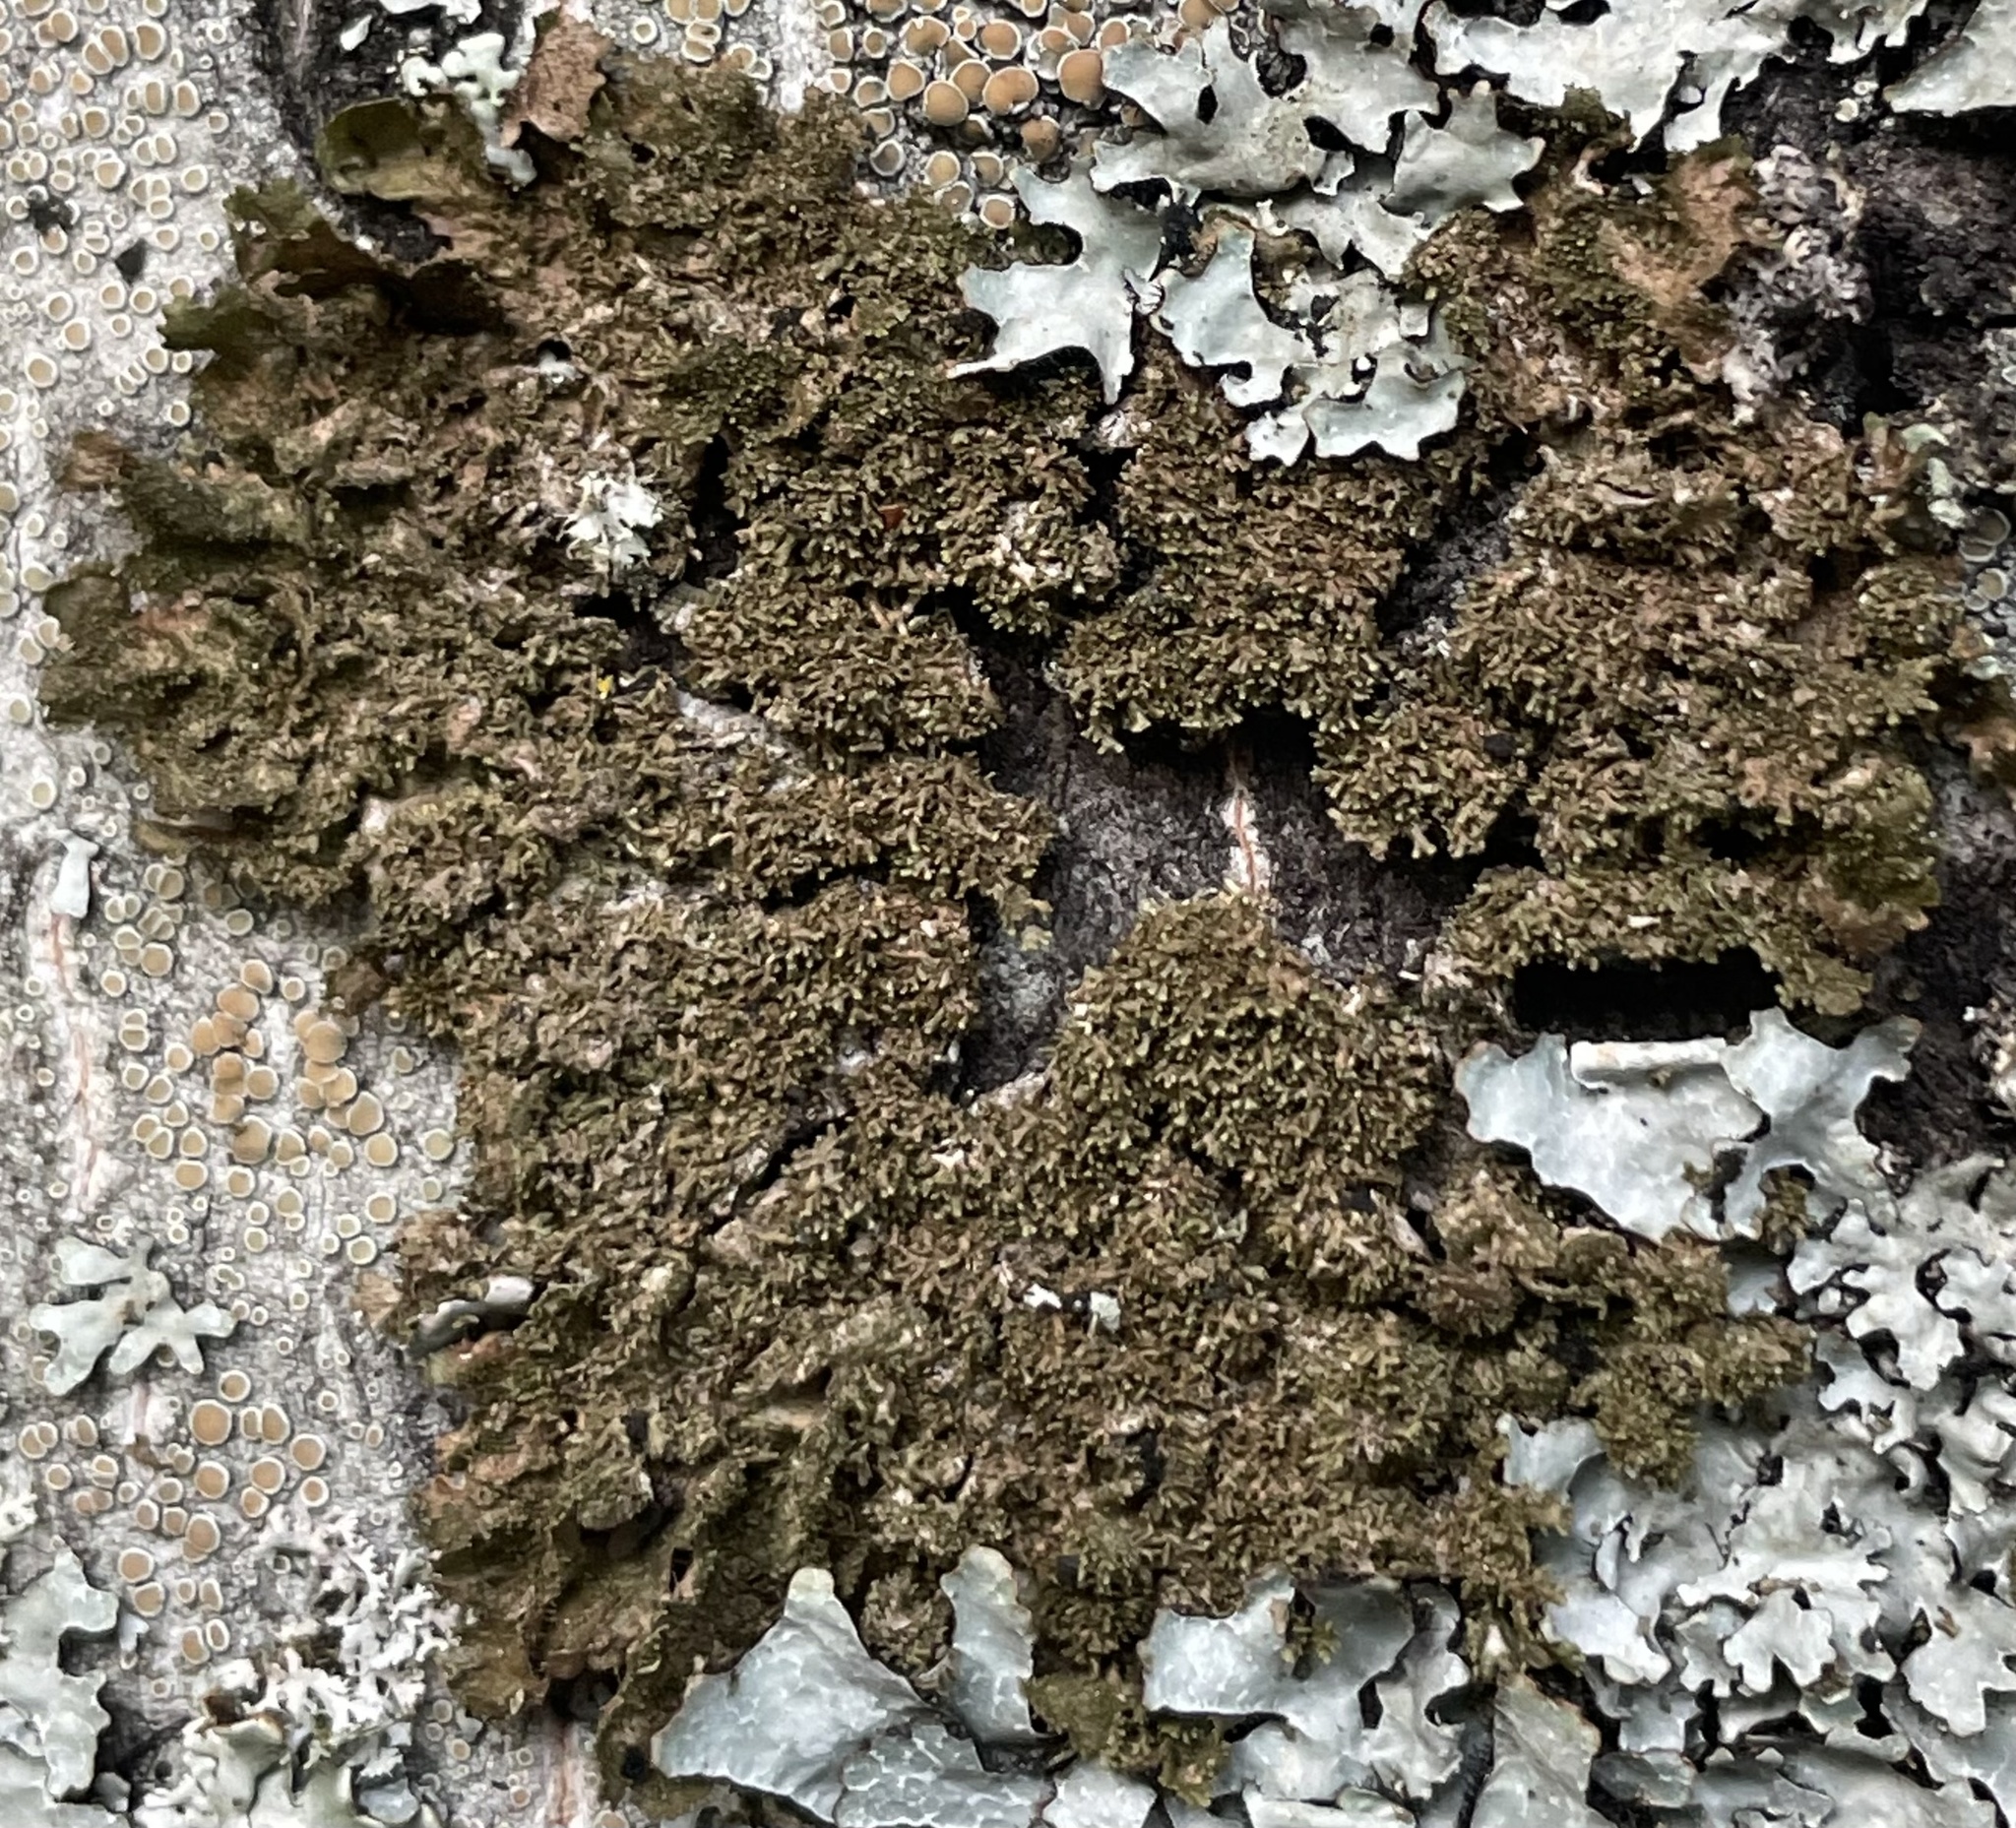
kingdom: Fungi
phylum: Ascomycota
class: Lecanoromycetes
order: Lecanorales
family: Parmeliaceae
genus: Melanohalea
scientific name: Melanohalea exasperatula
